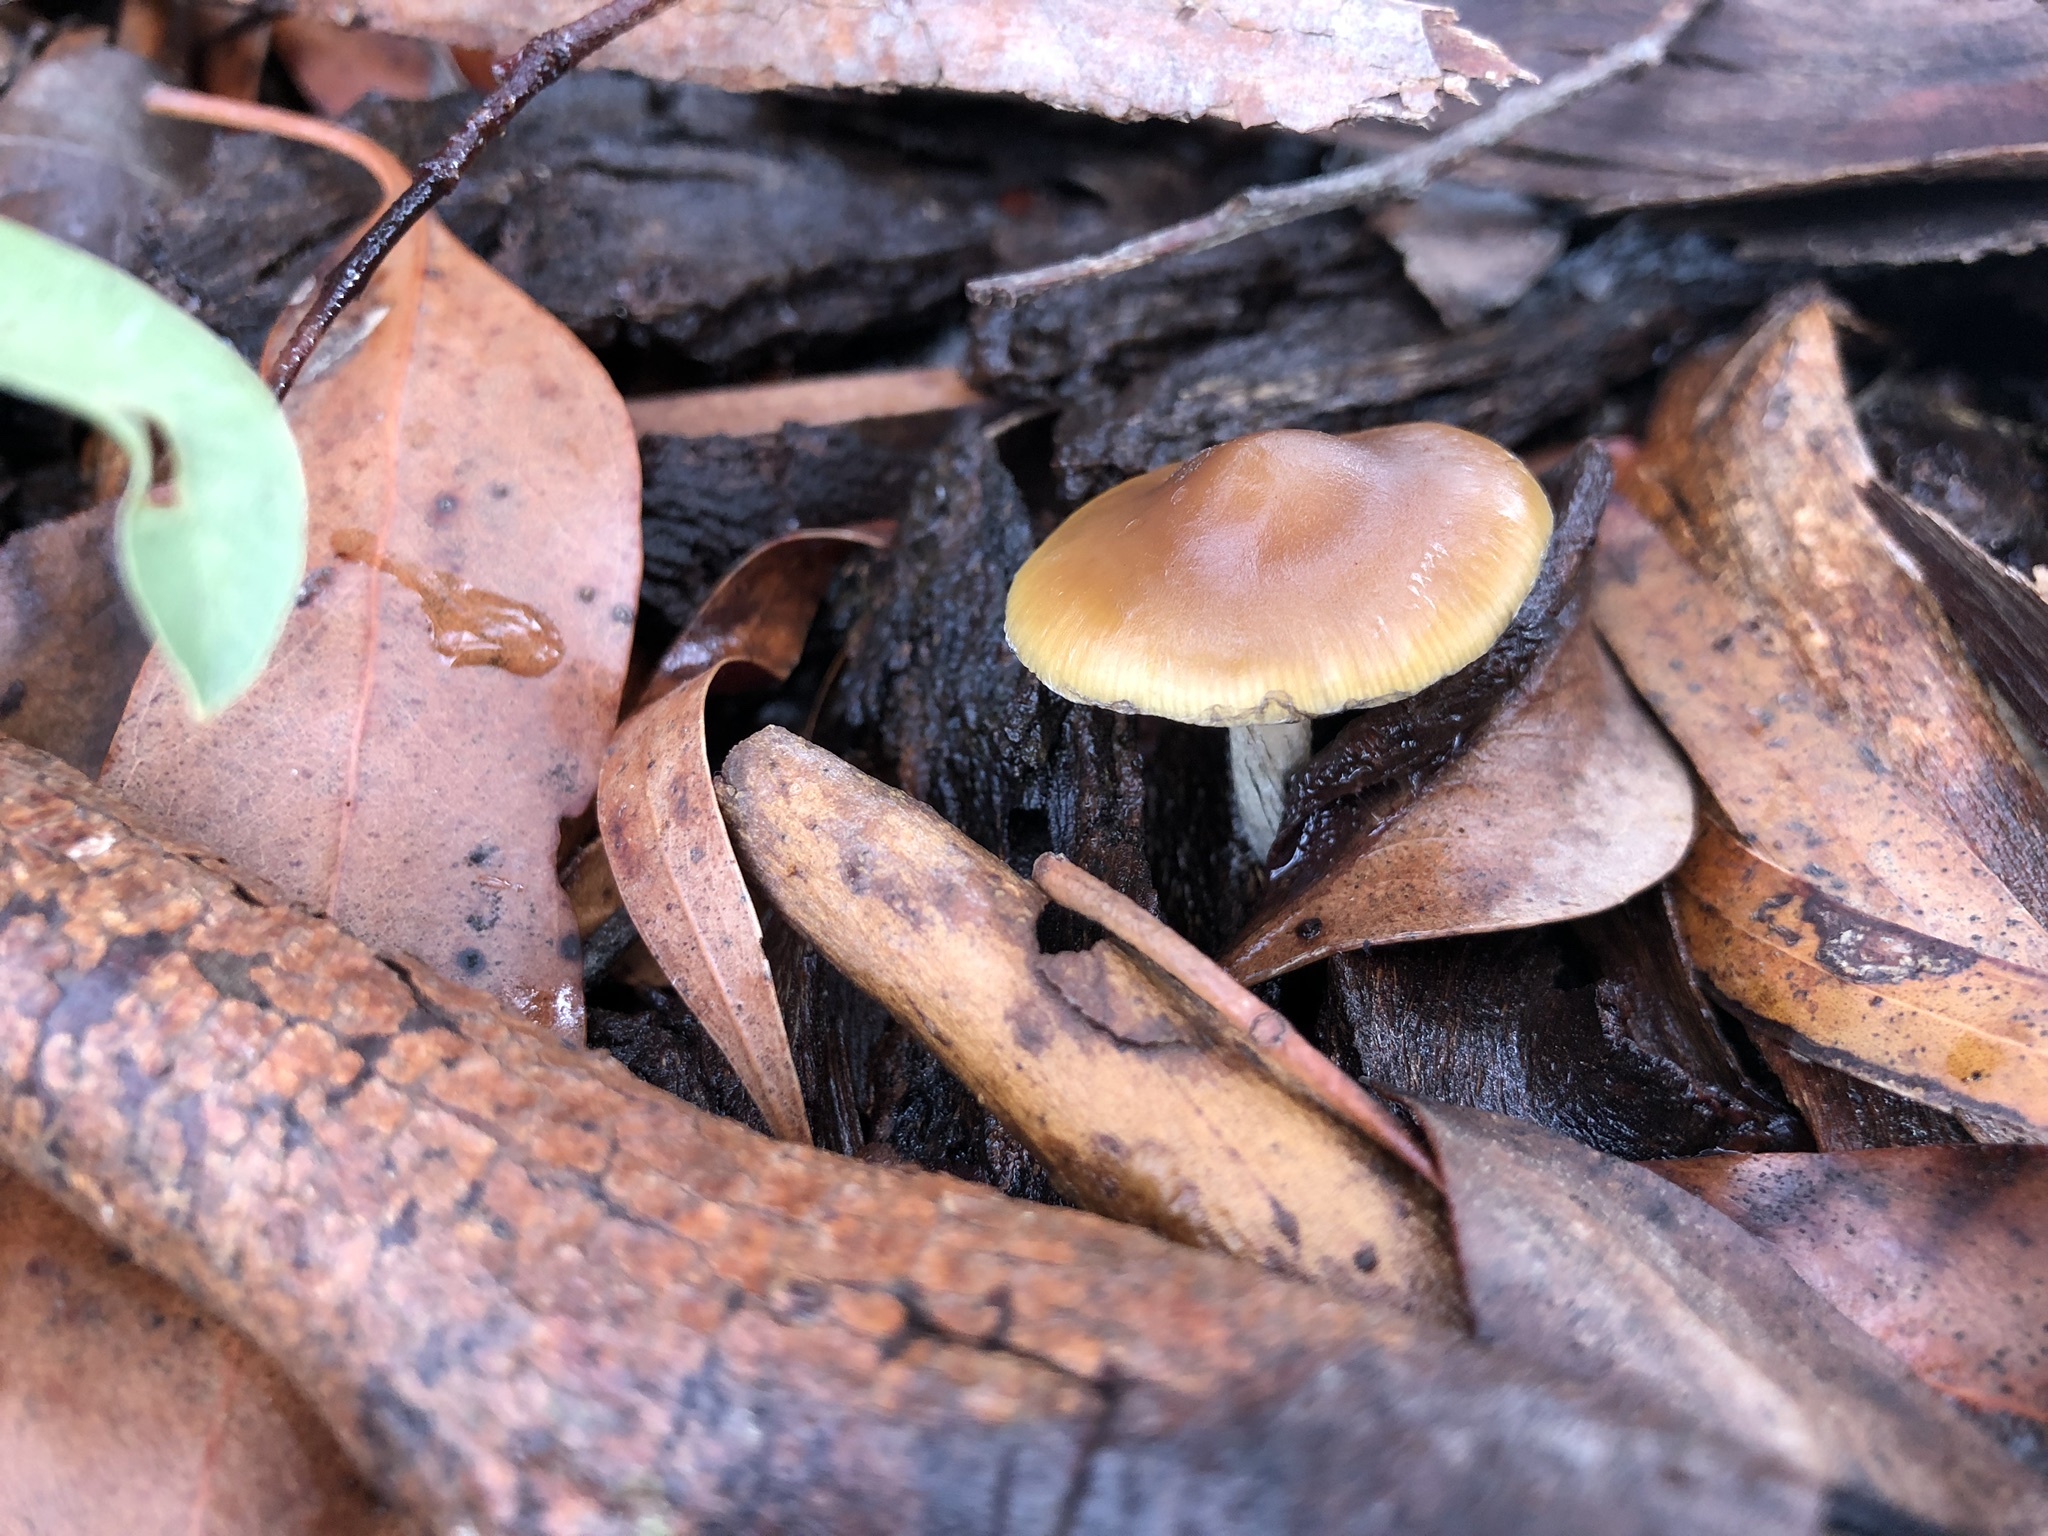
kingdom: Fungi
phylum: Basidiomycota
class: Agaricomycetes
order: Agaricales
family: Hymenogastraceae
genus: Psilocybe
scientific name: Psilocybe subaeruginosa
